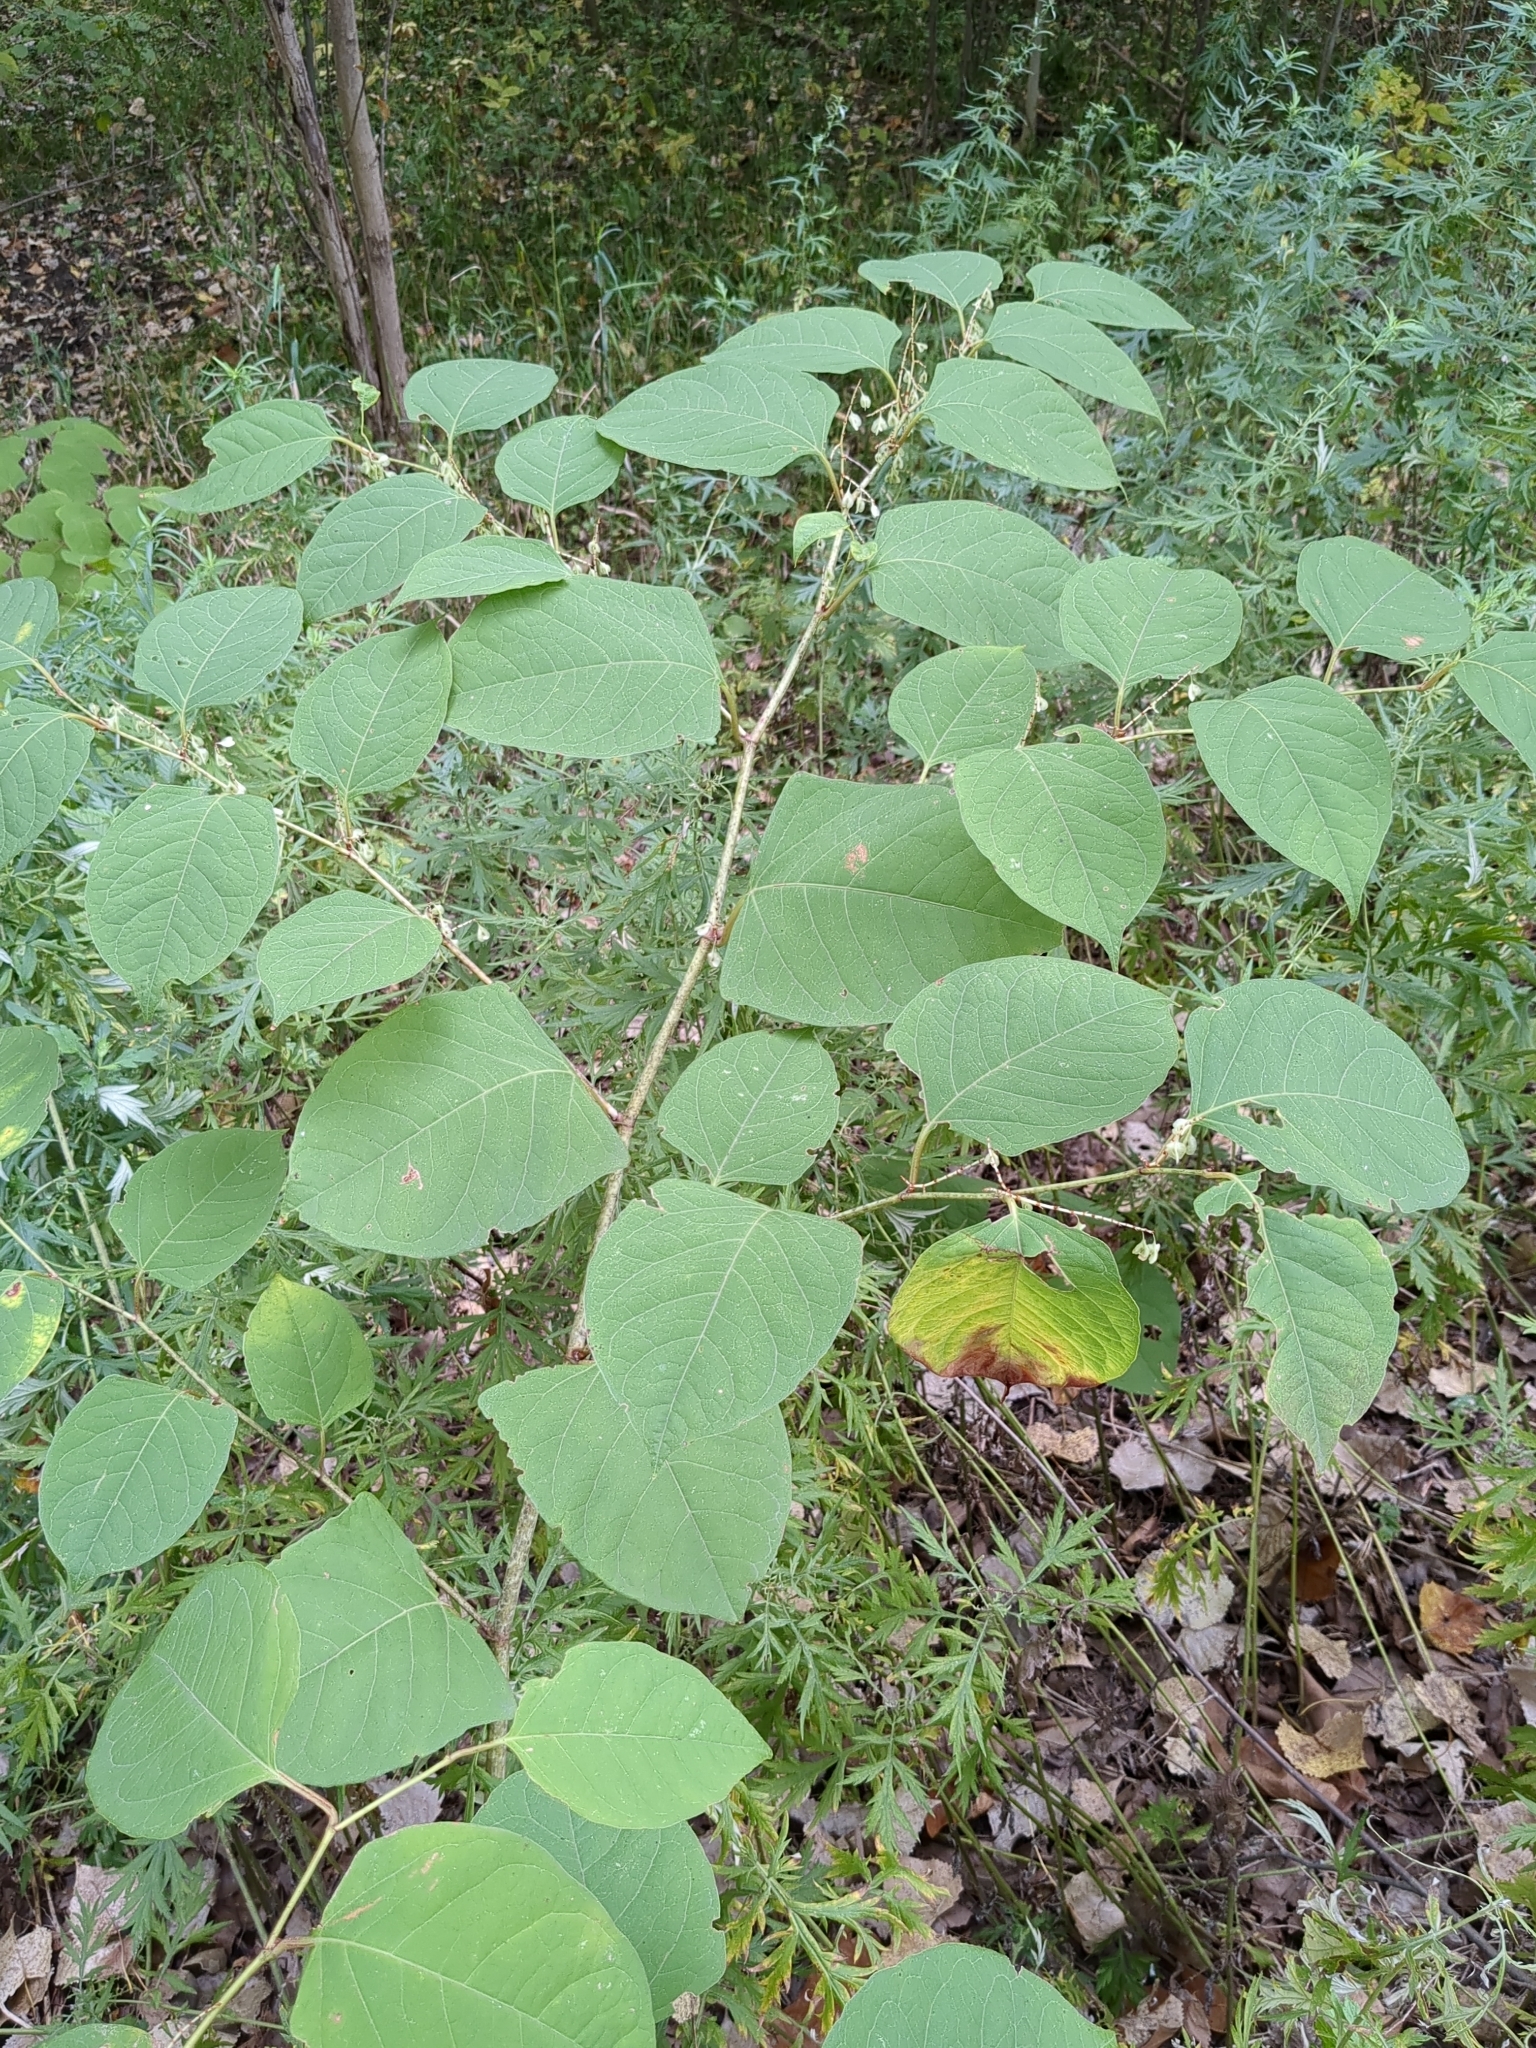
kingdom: Plantae
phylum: Tracheophyta
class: Magnoliopsida
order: Caryophyllales
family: Polygonaceae
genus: Reynoutria
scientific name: Reynoutria japonica
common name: Japanese knotweed
